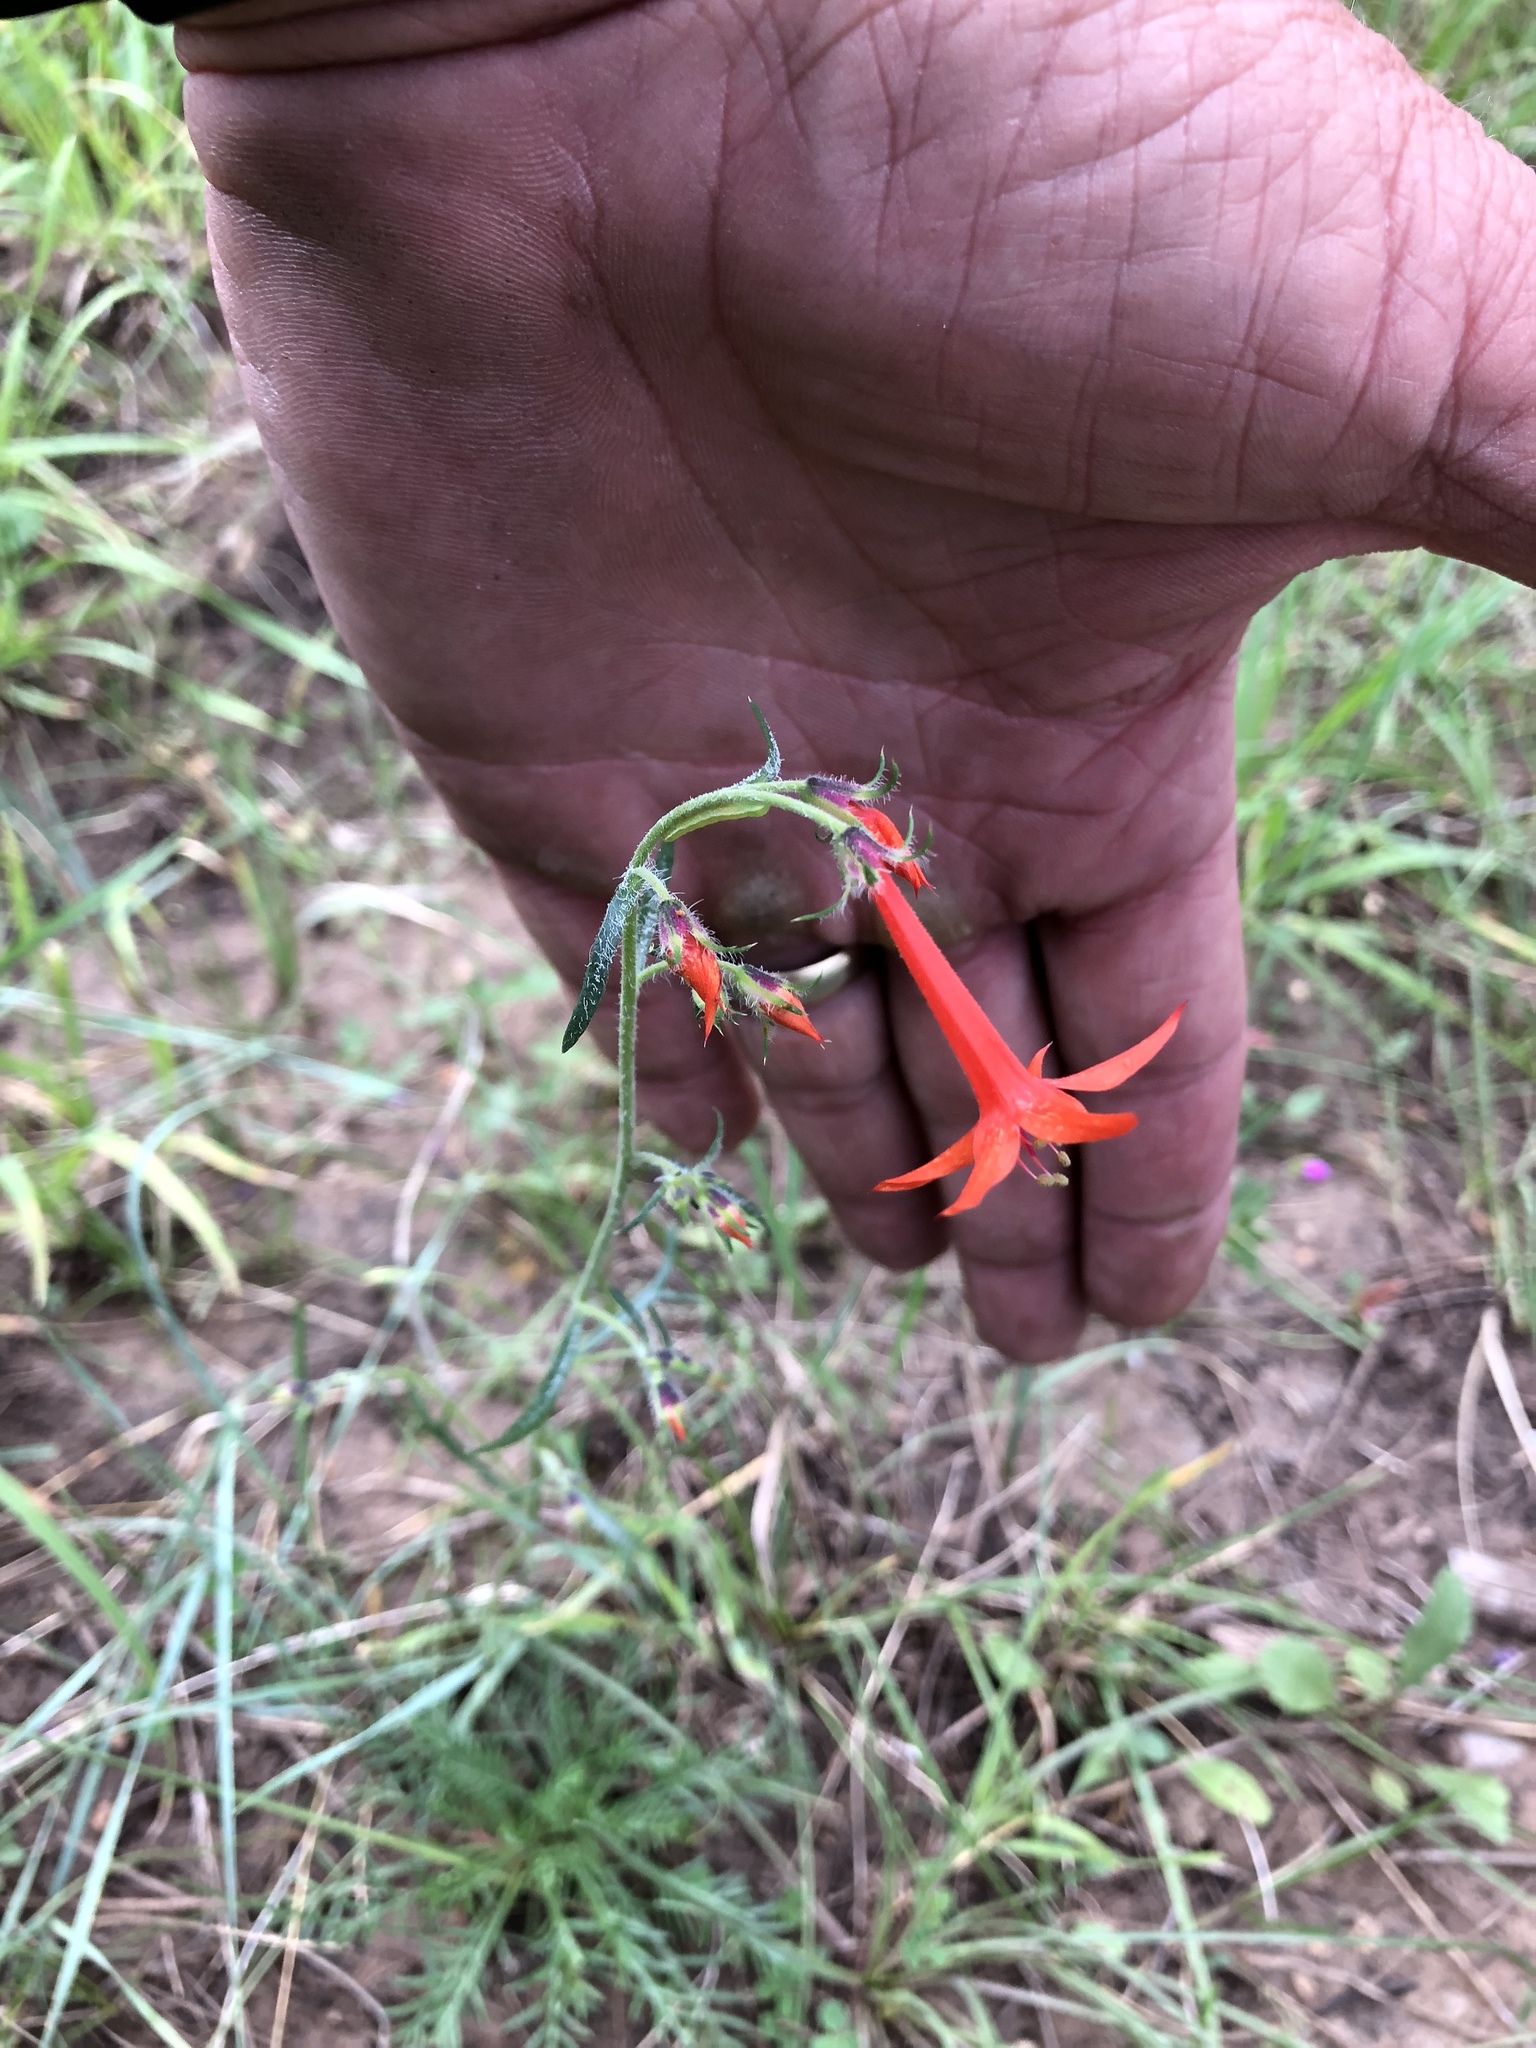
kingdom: Plantae
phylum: Tracheophyta
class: Magnoliopsida
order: Ericales
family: Polemoniaceae
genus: Ipomopsis
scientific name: Ipomopsis aggregata
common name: Scarlet gilia
